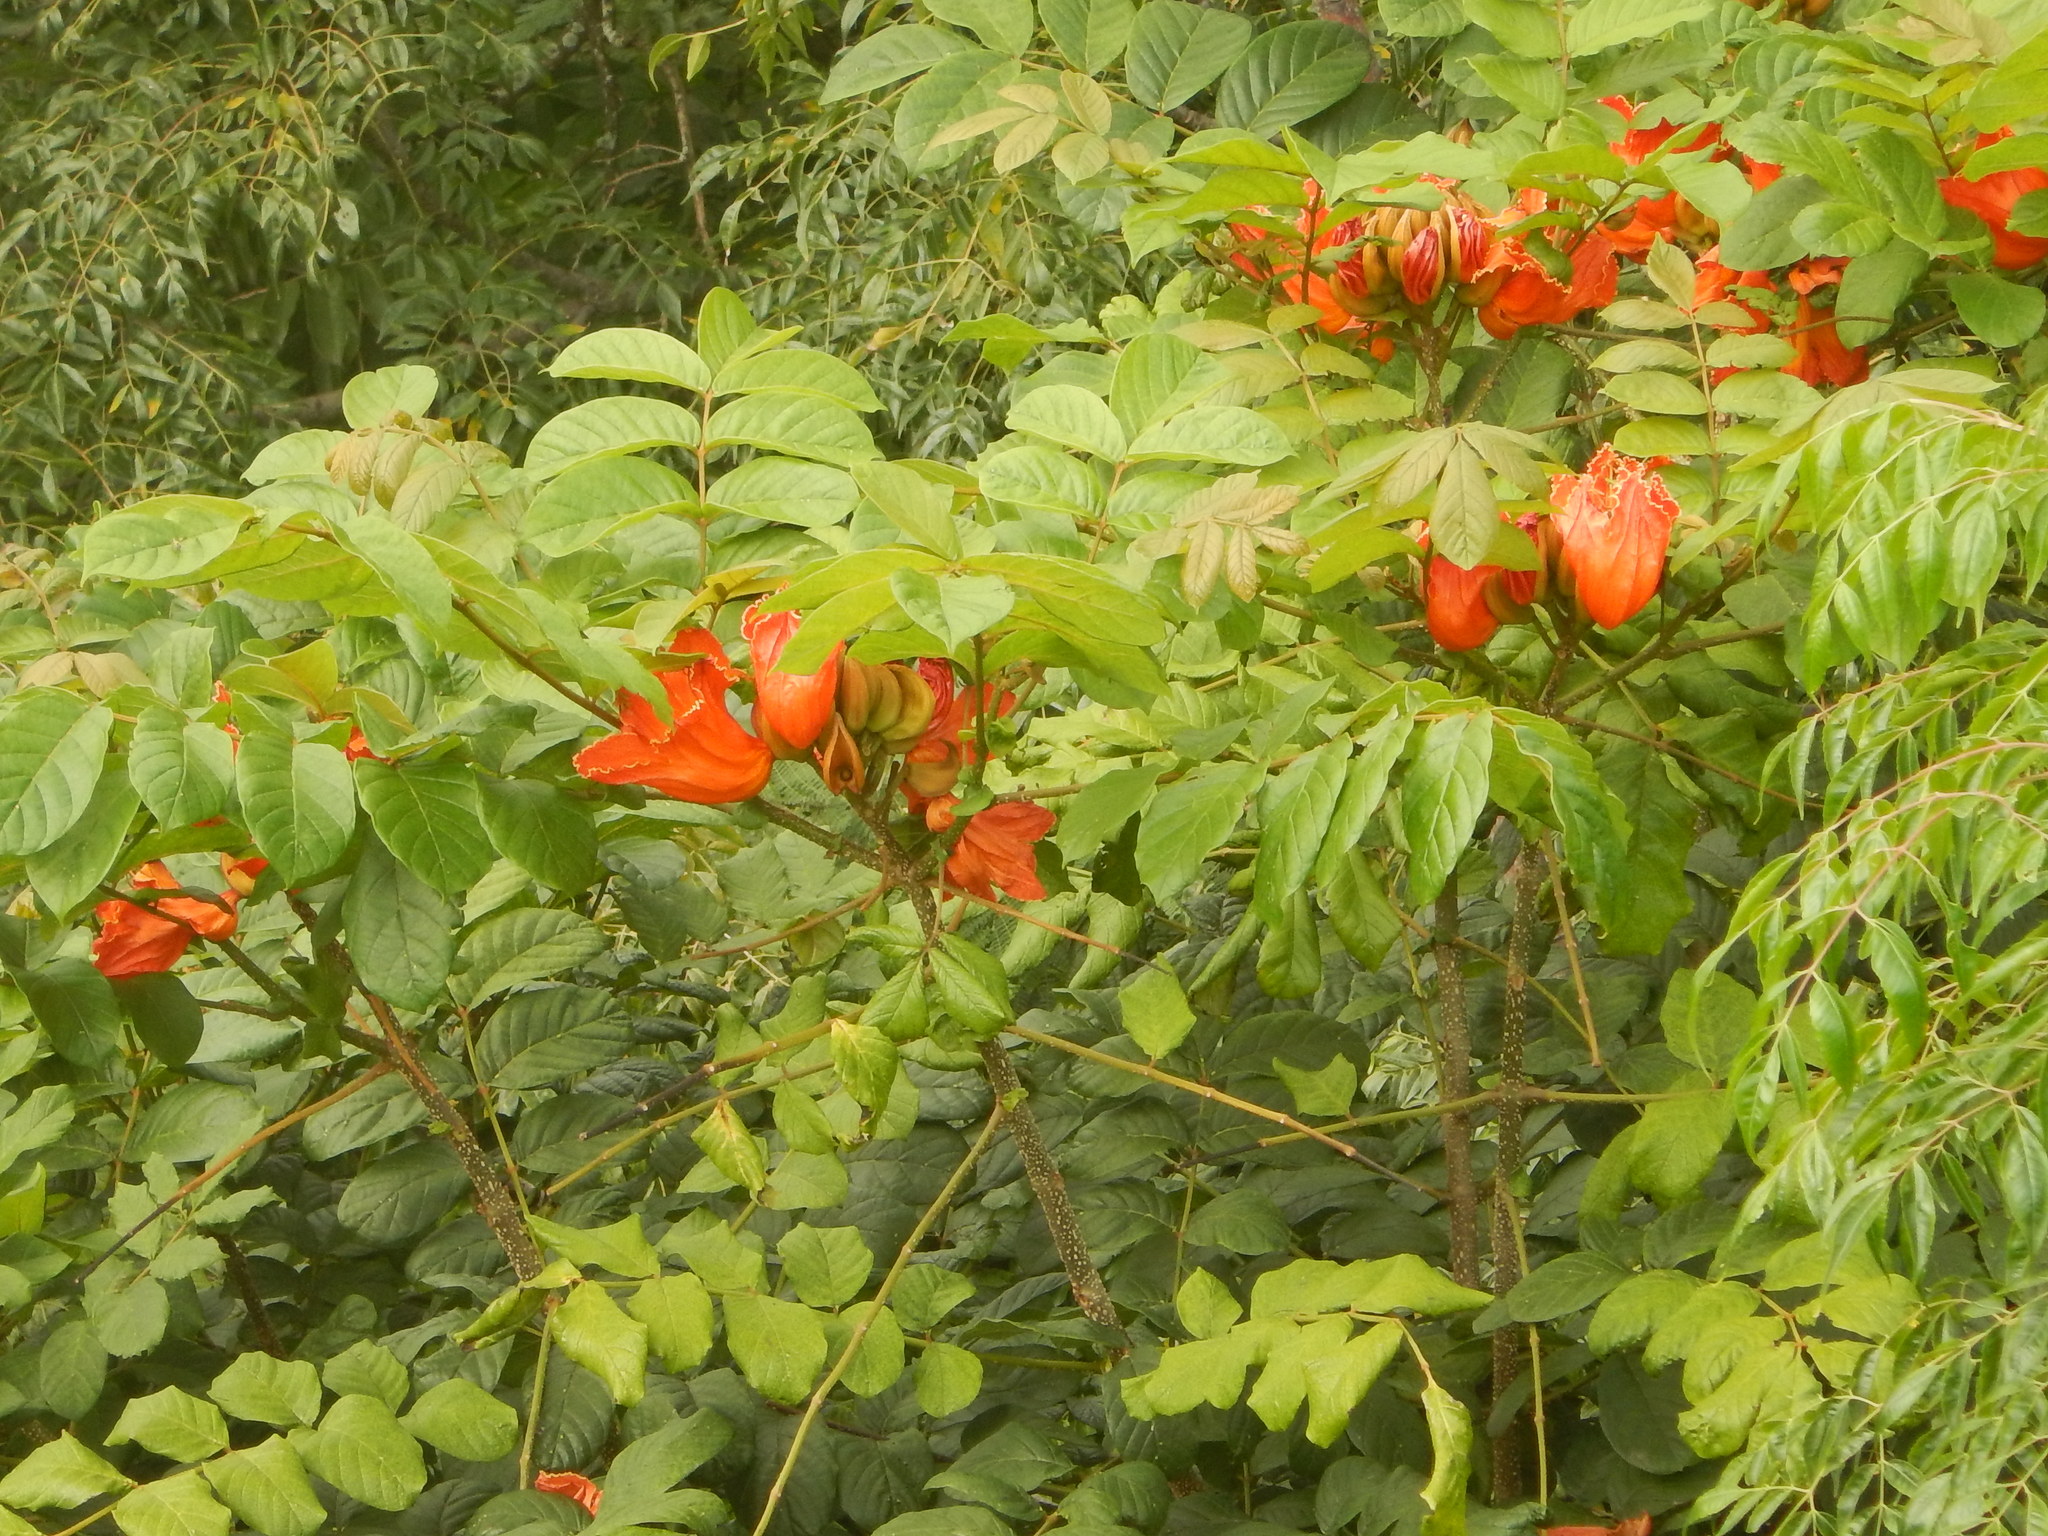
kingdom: Plantae
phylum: Tracheophyta
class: Magnoliopsida
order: Lamiales
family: Bignoniaceae
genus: Spathodea
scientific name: Spathodea campanulata
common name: African tuliptree
